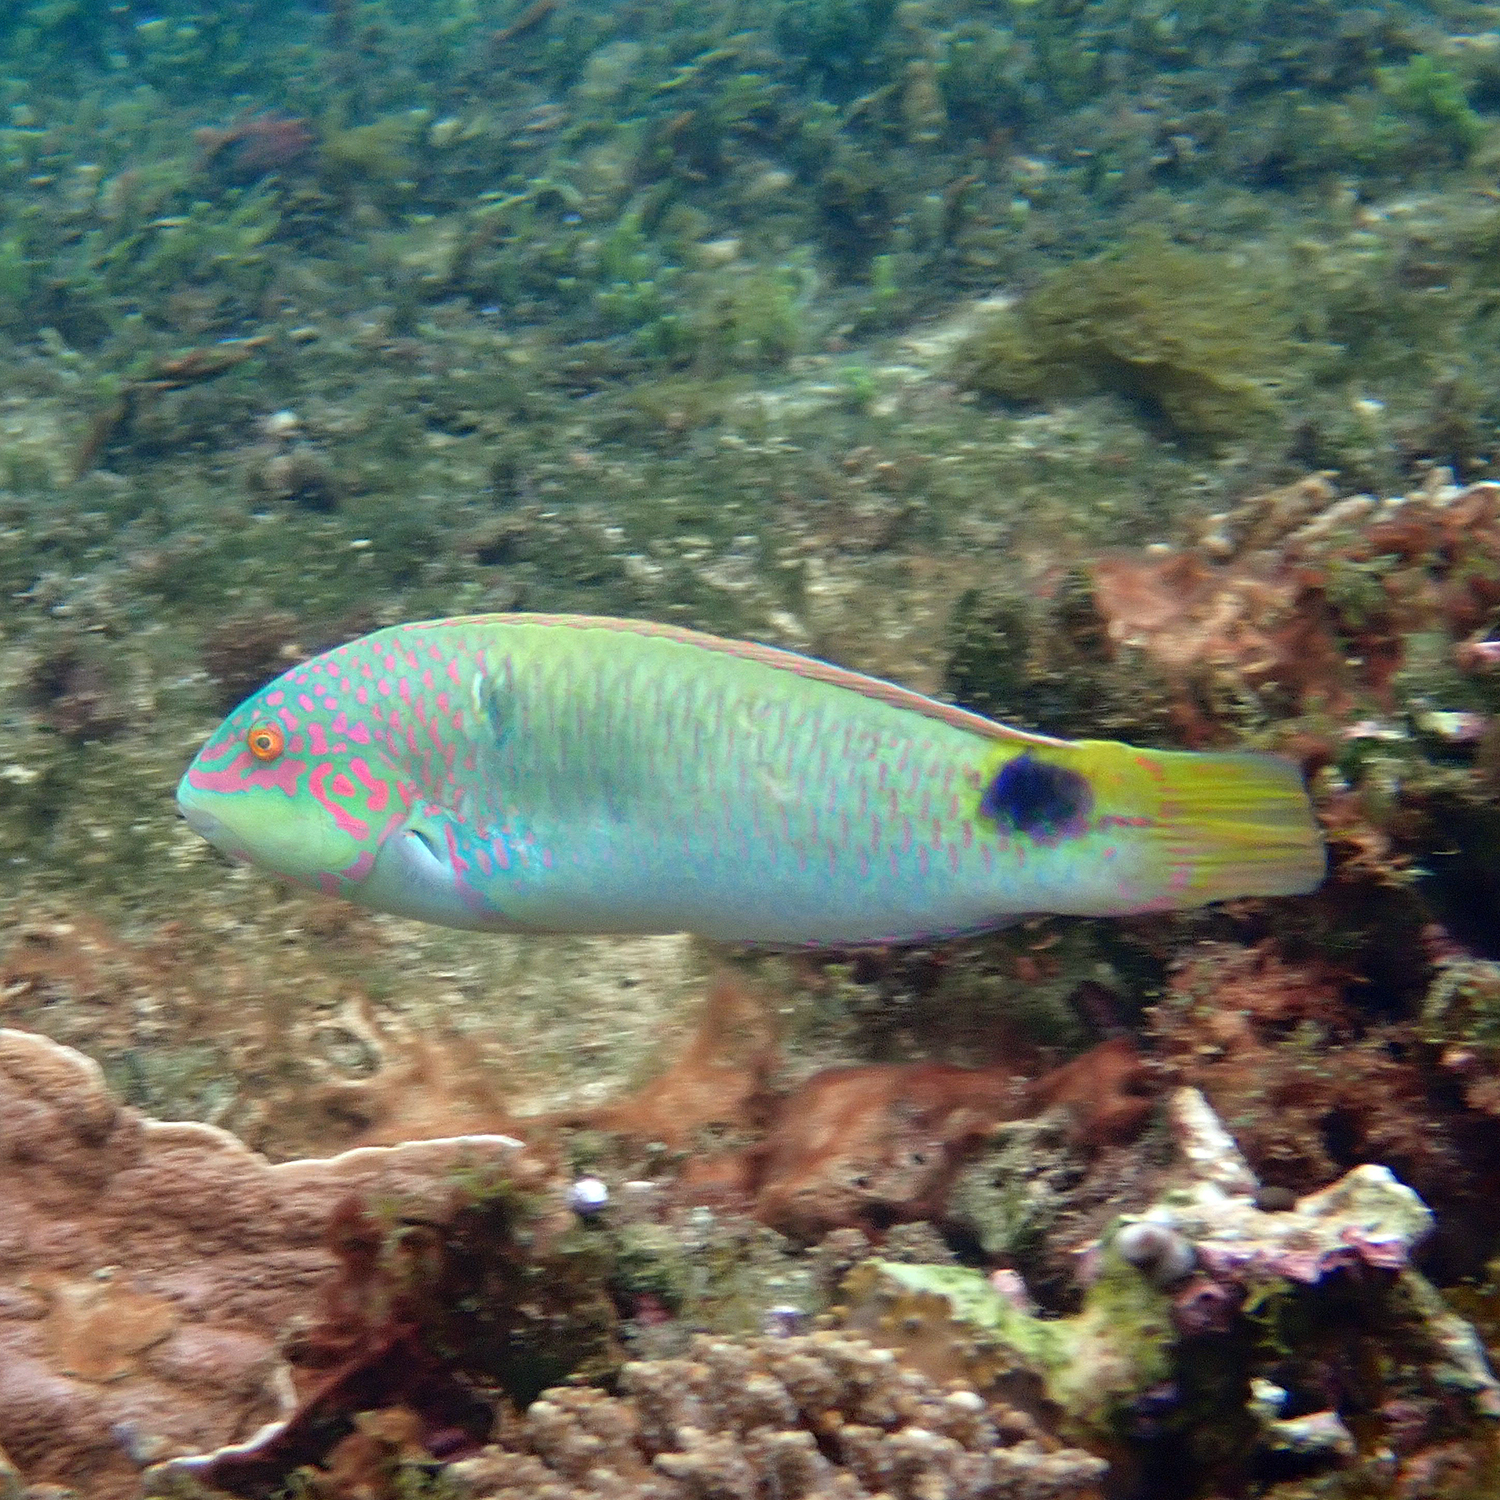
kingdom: Animalia
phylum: Chordata
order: Perciformes
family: Labridae
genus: Halichoeres
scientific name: Halichoeres trimaculatus
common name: Three-spot wrasse
